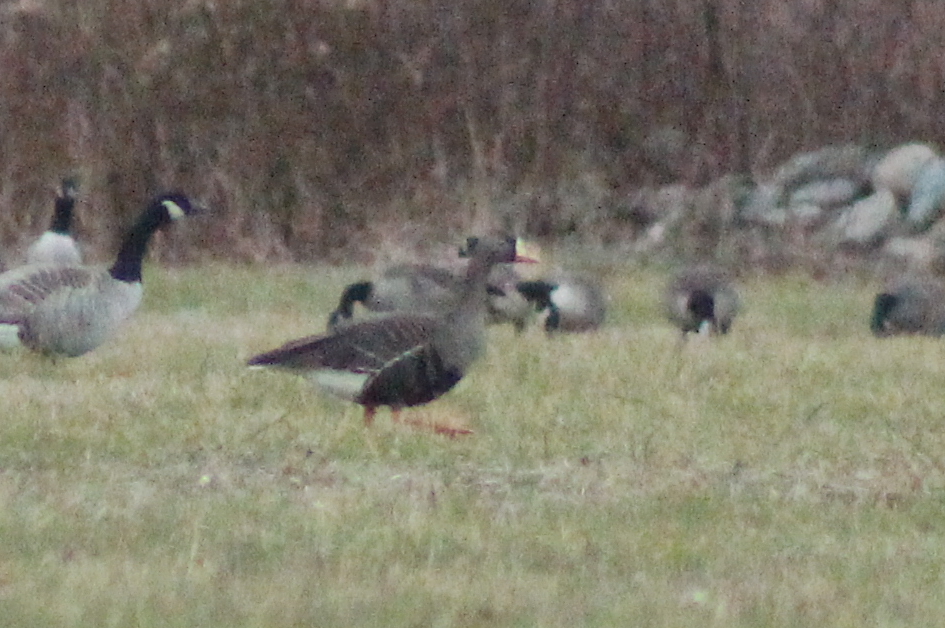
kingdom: Animalia
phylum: Chordata
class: Aves
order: Anseriformes
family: Anatidae
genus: Anser
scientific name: Anser albifrons
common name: Greater white-fronted goose
